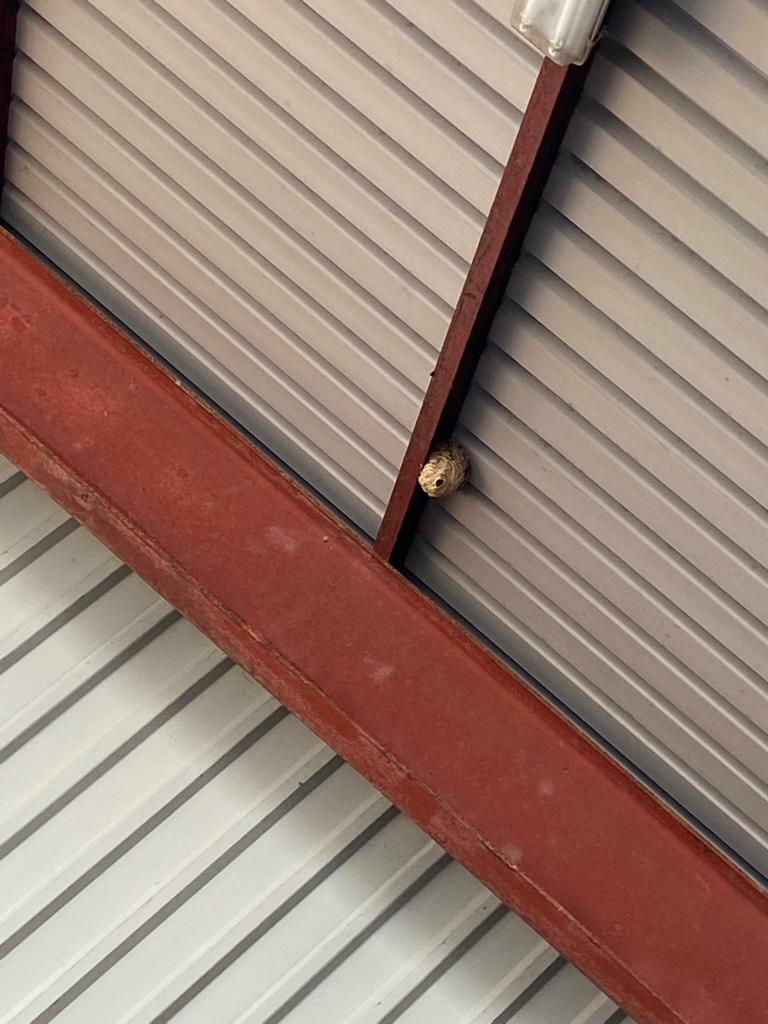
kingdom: Animalia
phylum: Arthropoda
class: Insecta
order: Hymenoptera
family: Vespidae
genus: Vespa
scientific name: Vespa velutina
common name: Asian hornet
